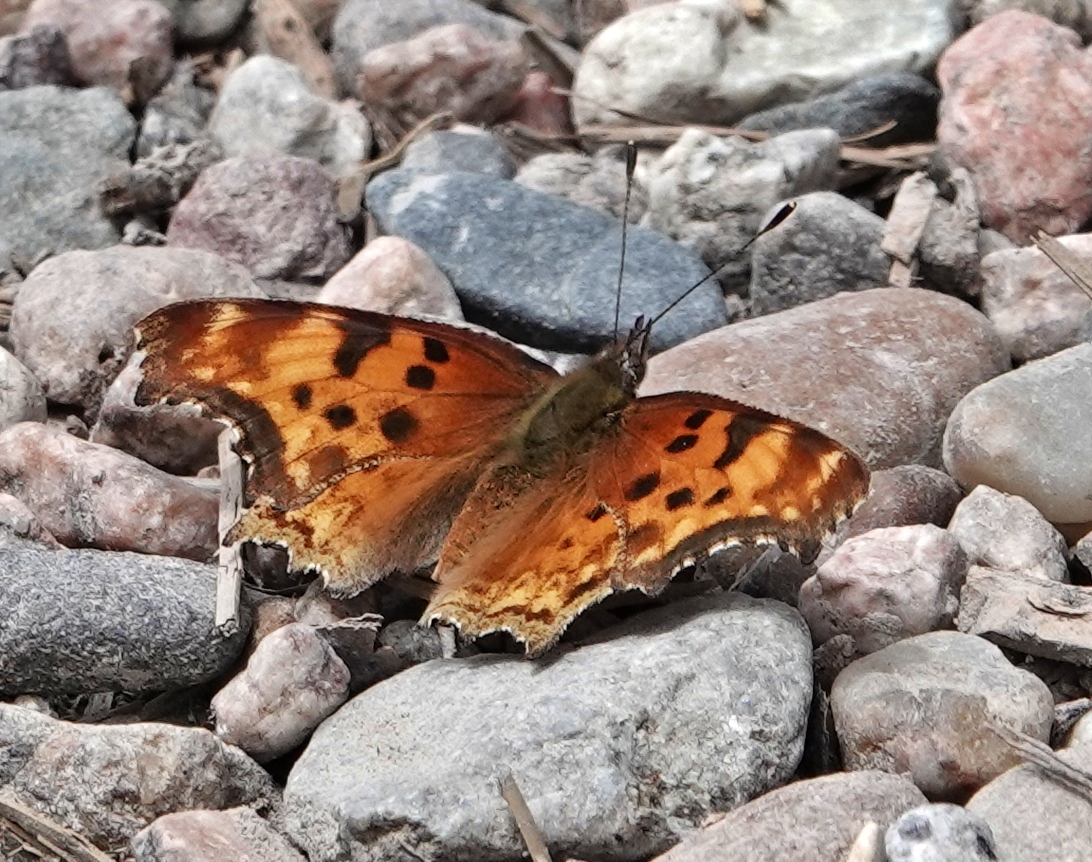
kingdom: Animalia
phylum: Arthropoda
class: Insecta
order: Lepidoptera
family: Nymphalidae
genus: Polygonia
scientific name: Polygonia gracilis
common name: Hoary comma
